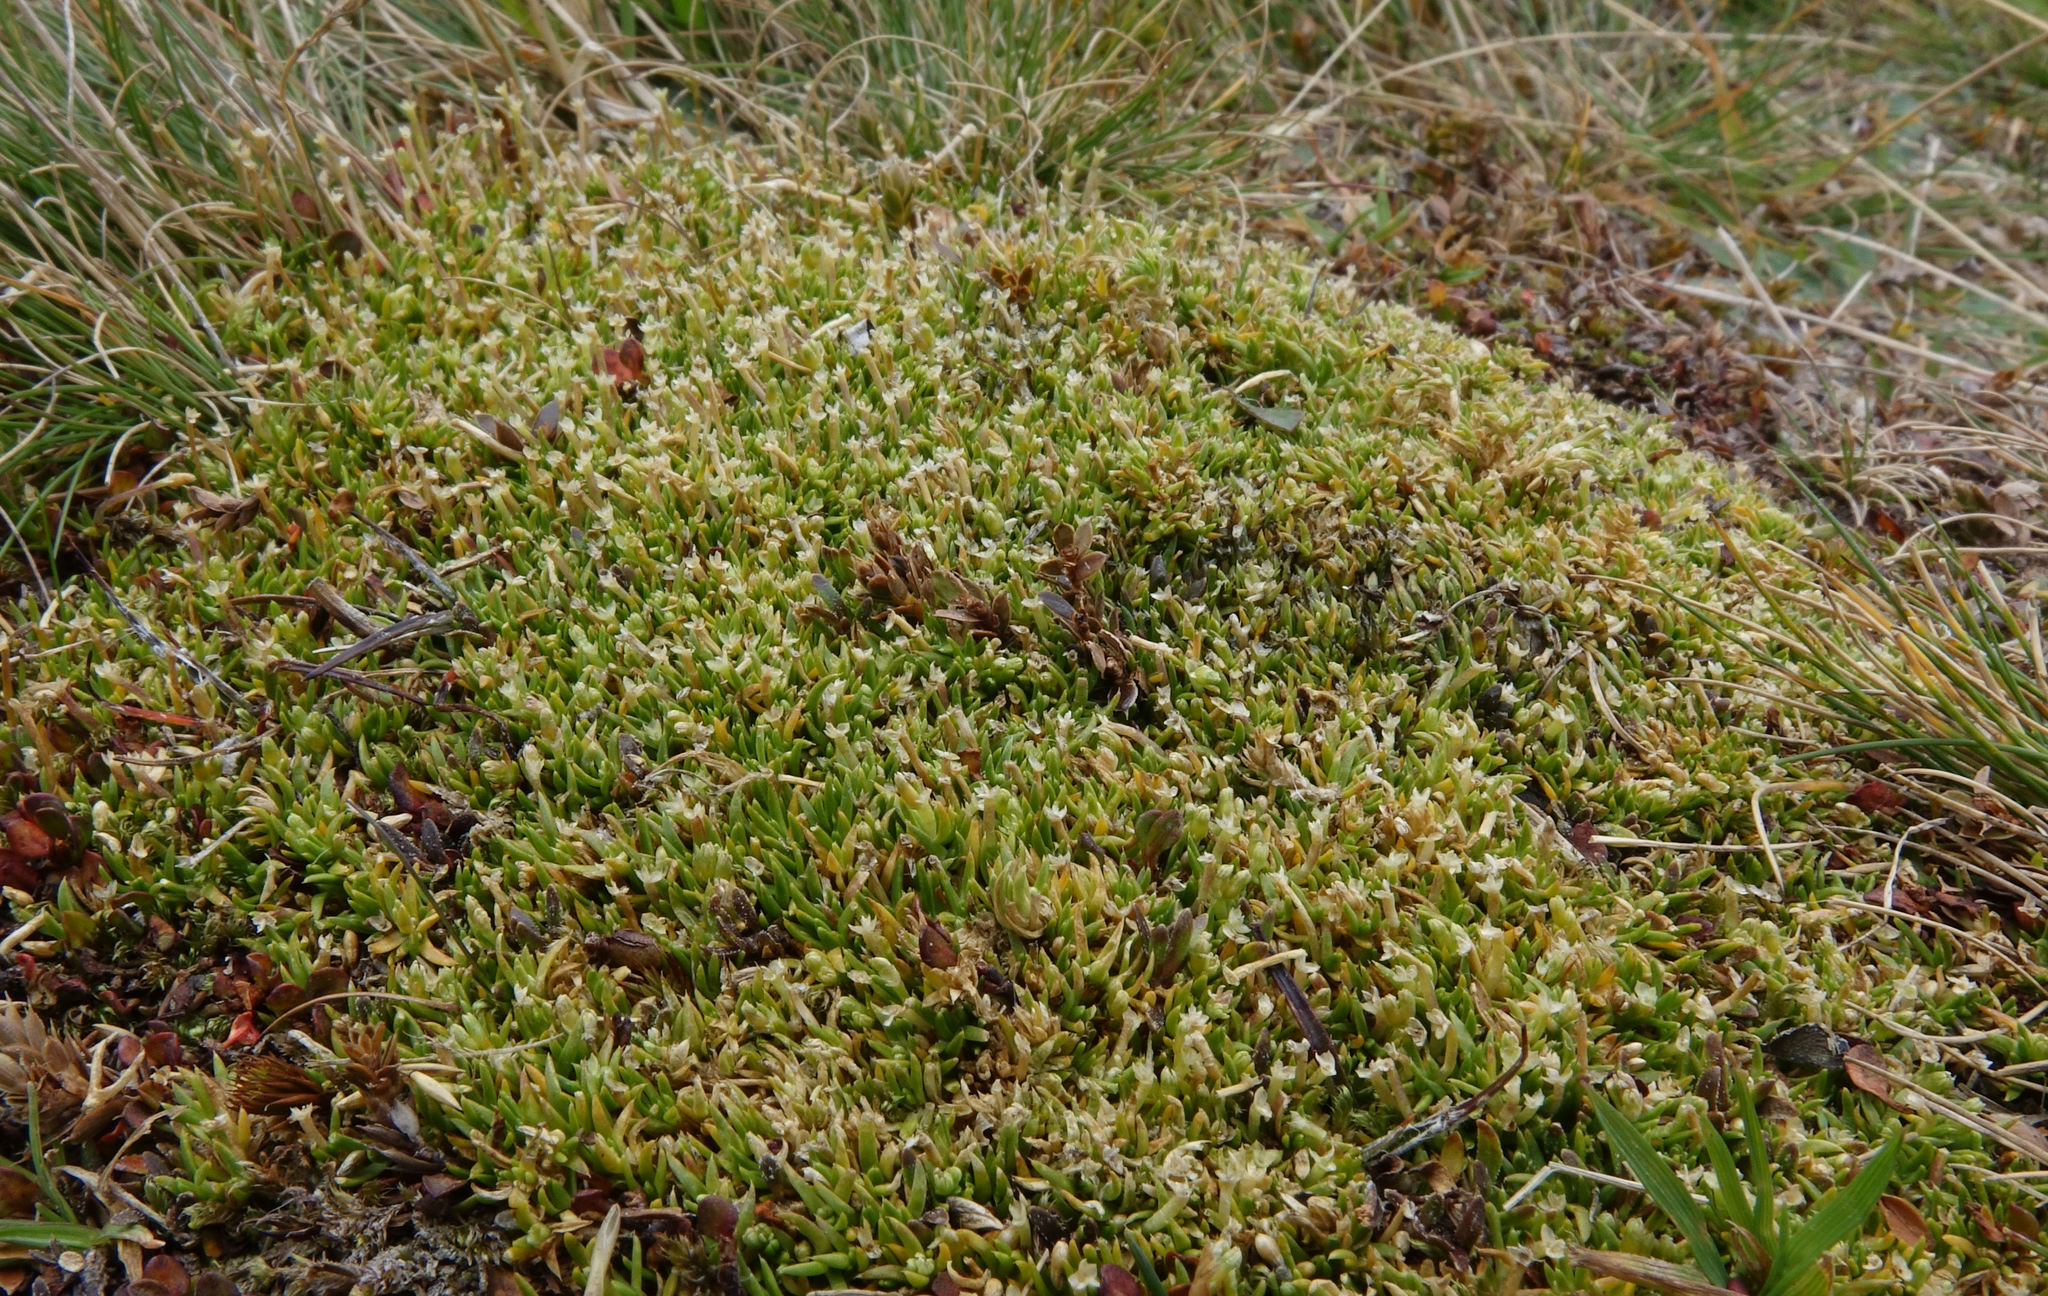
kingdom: Plantae
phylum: Tracheophyta
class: Magnoliopsida
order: Caryophyllales
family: Caryophyllaceae
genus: Scleranthus
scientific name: Scleranthus brockiei
